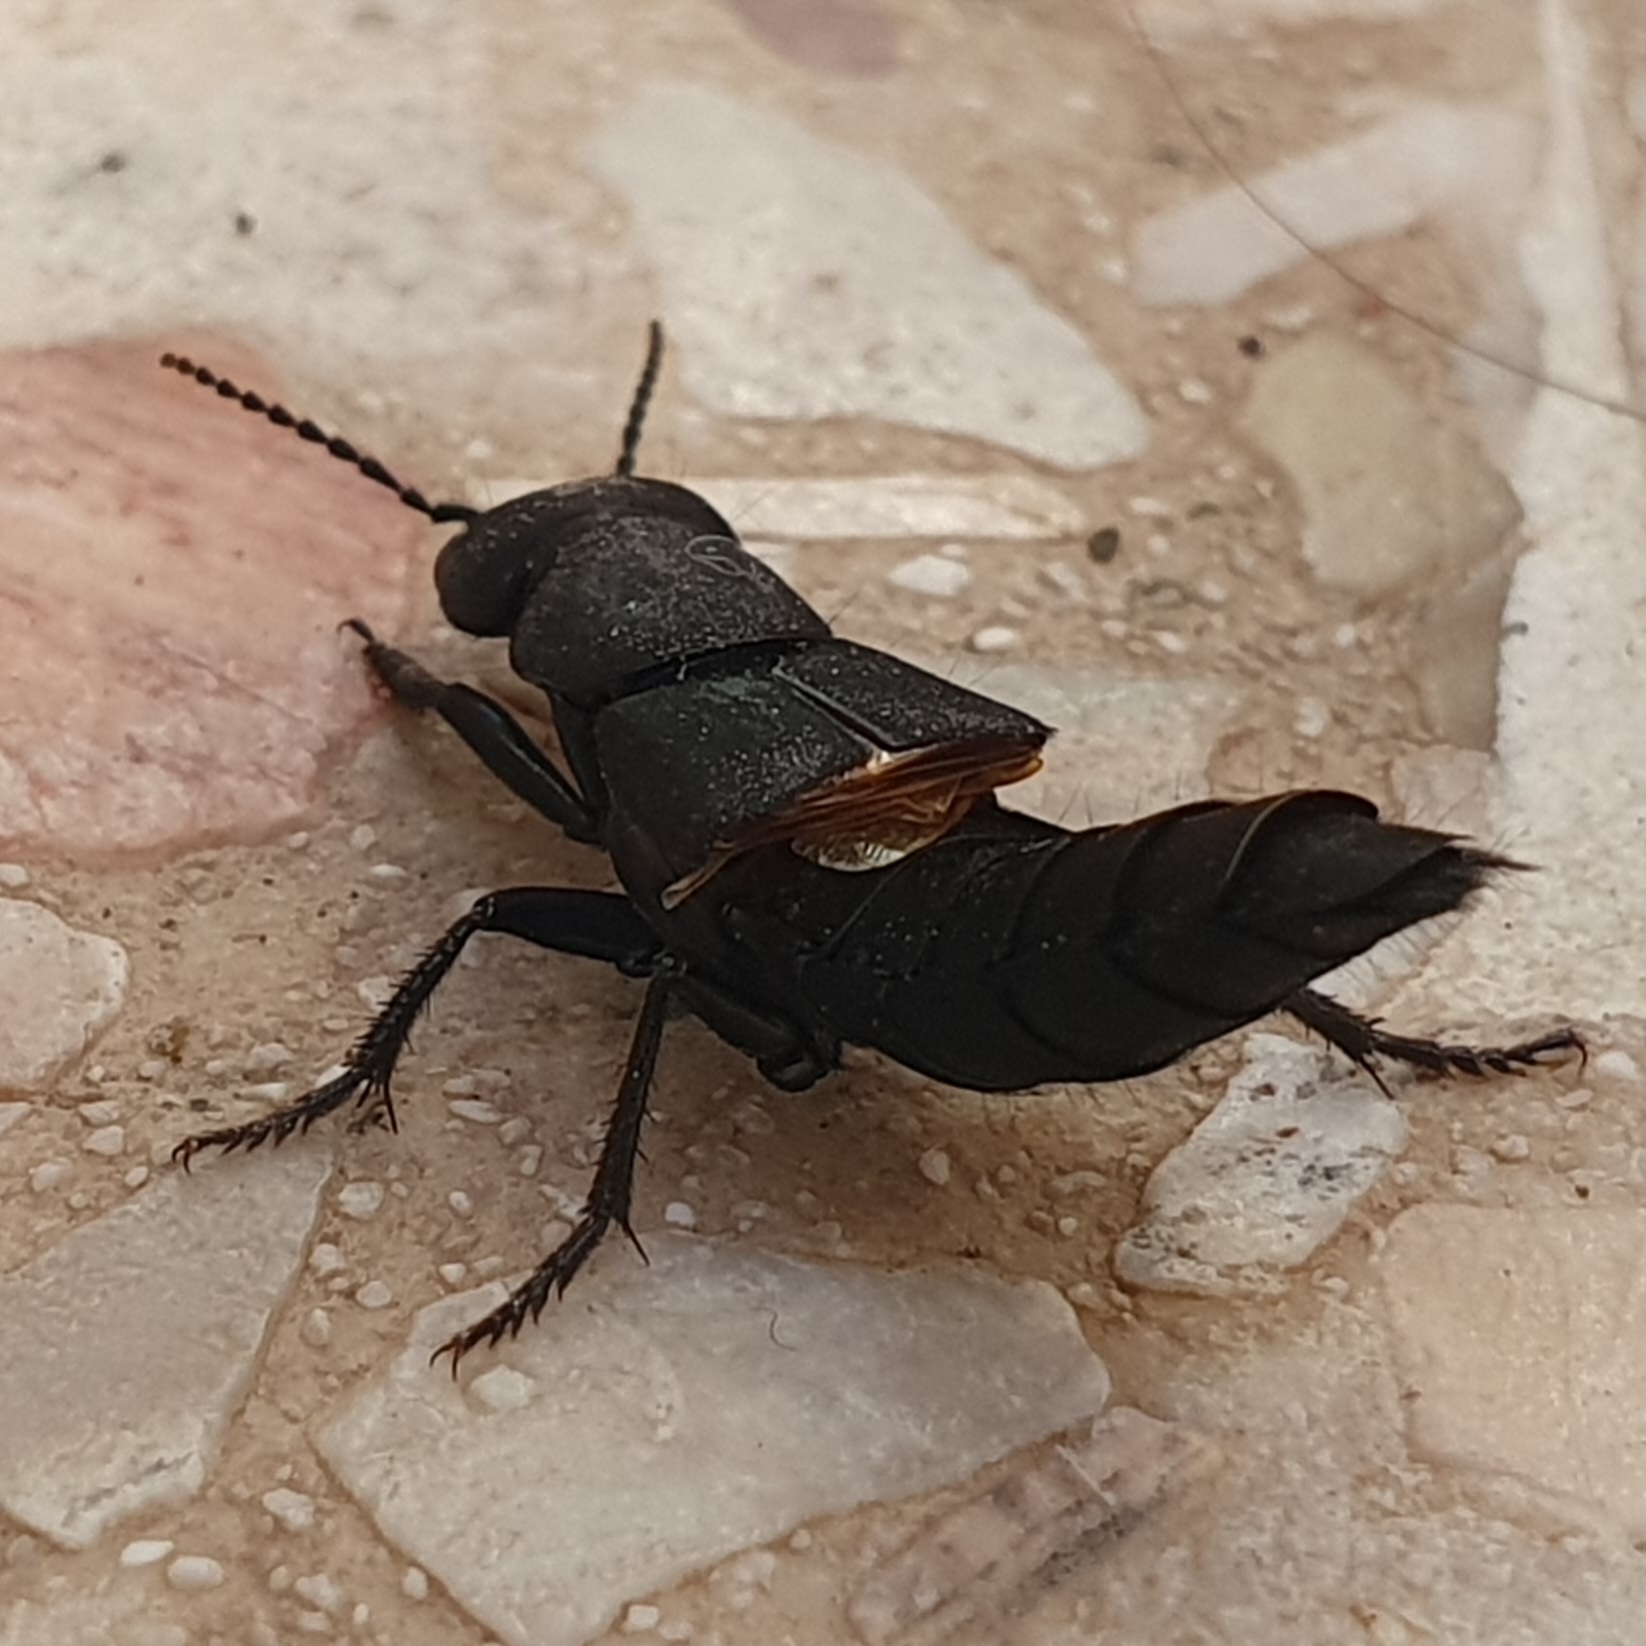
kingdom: Animalia
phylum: Arthropoda
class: Insecta
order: Coleoptera
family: Staphylinidae
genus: Ocypus
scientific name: Ocypus olens
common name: Devil's coach-horse
